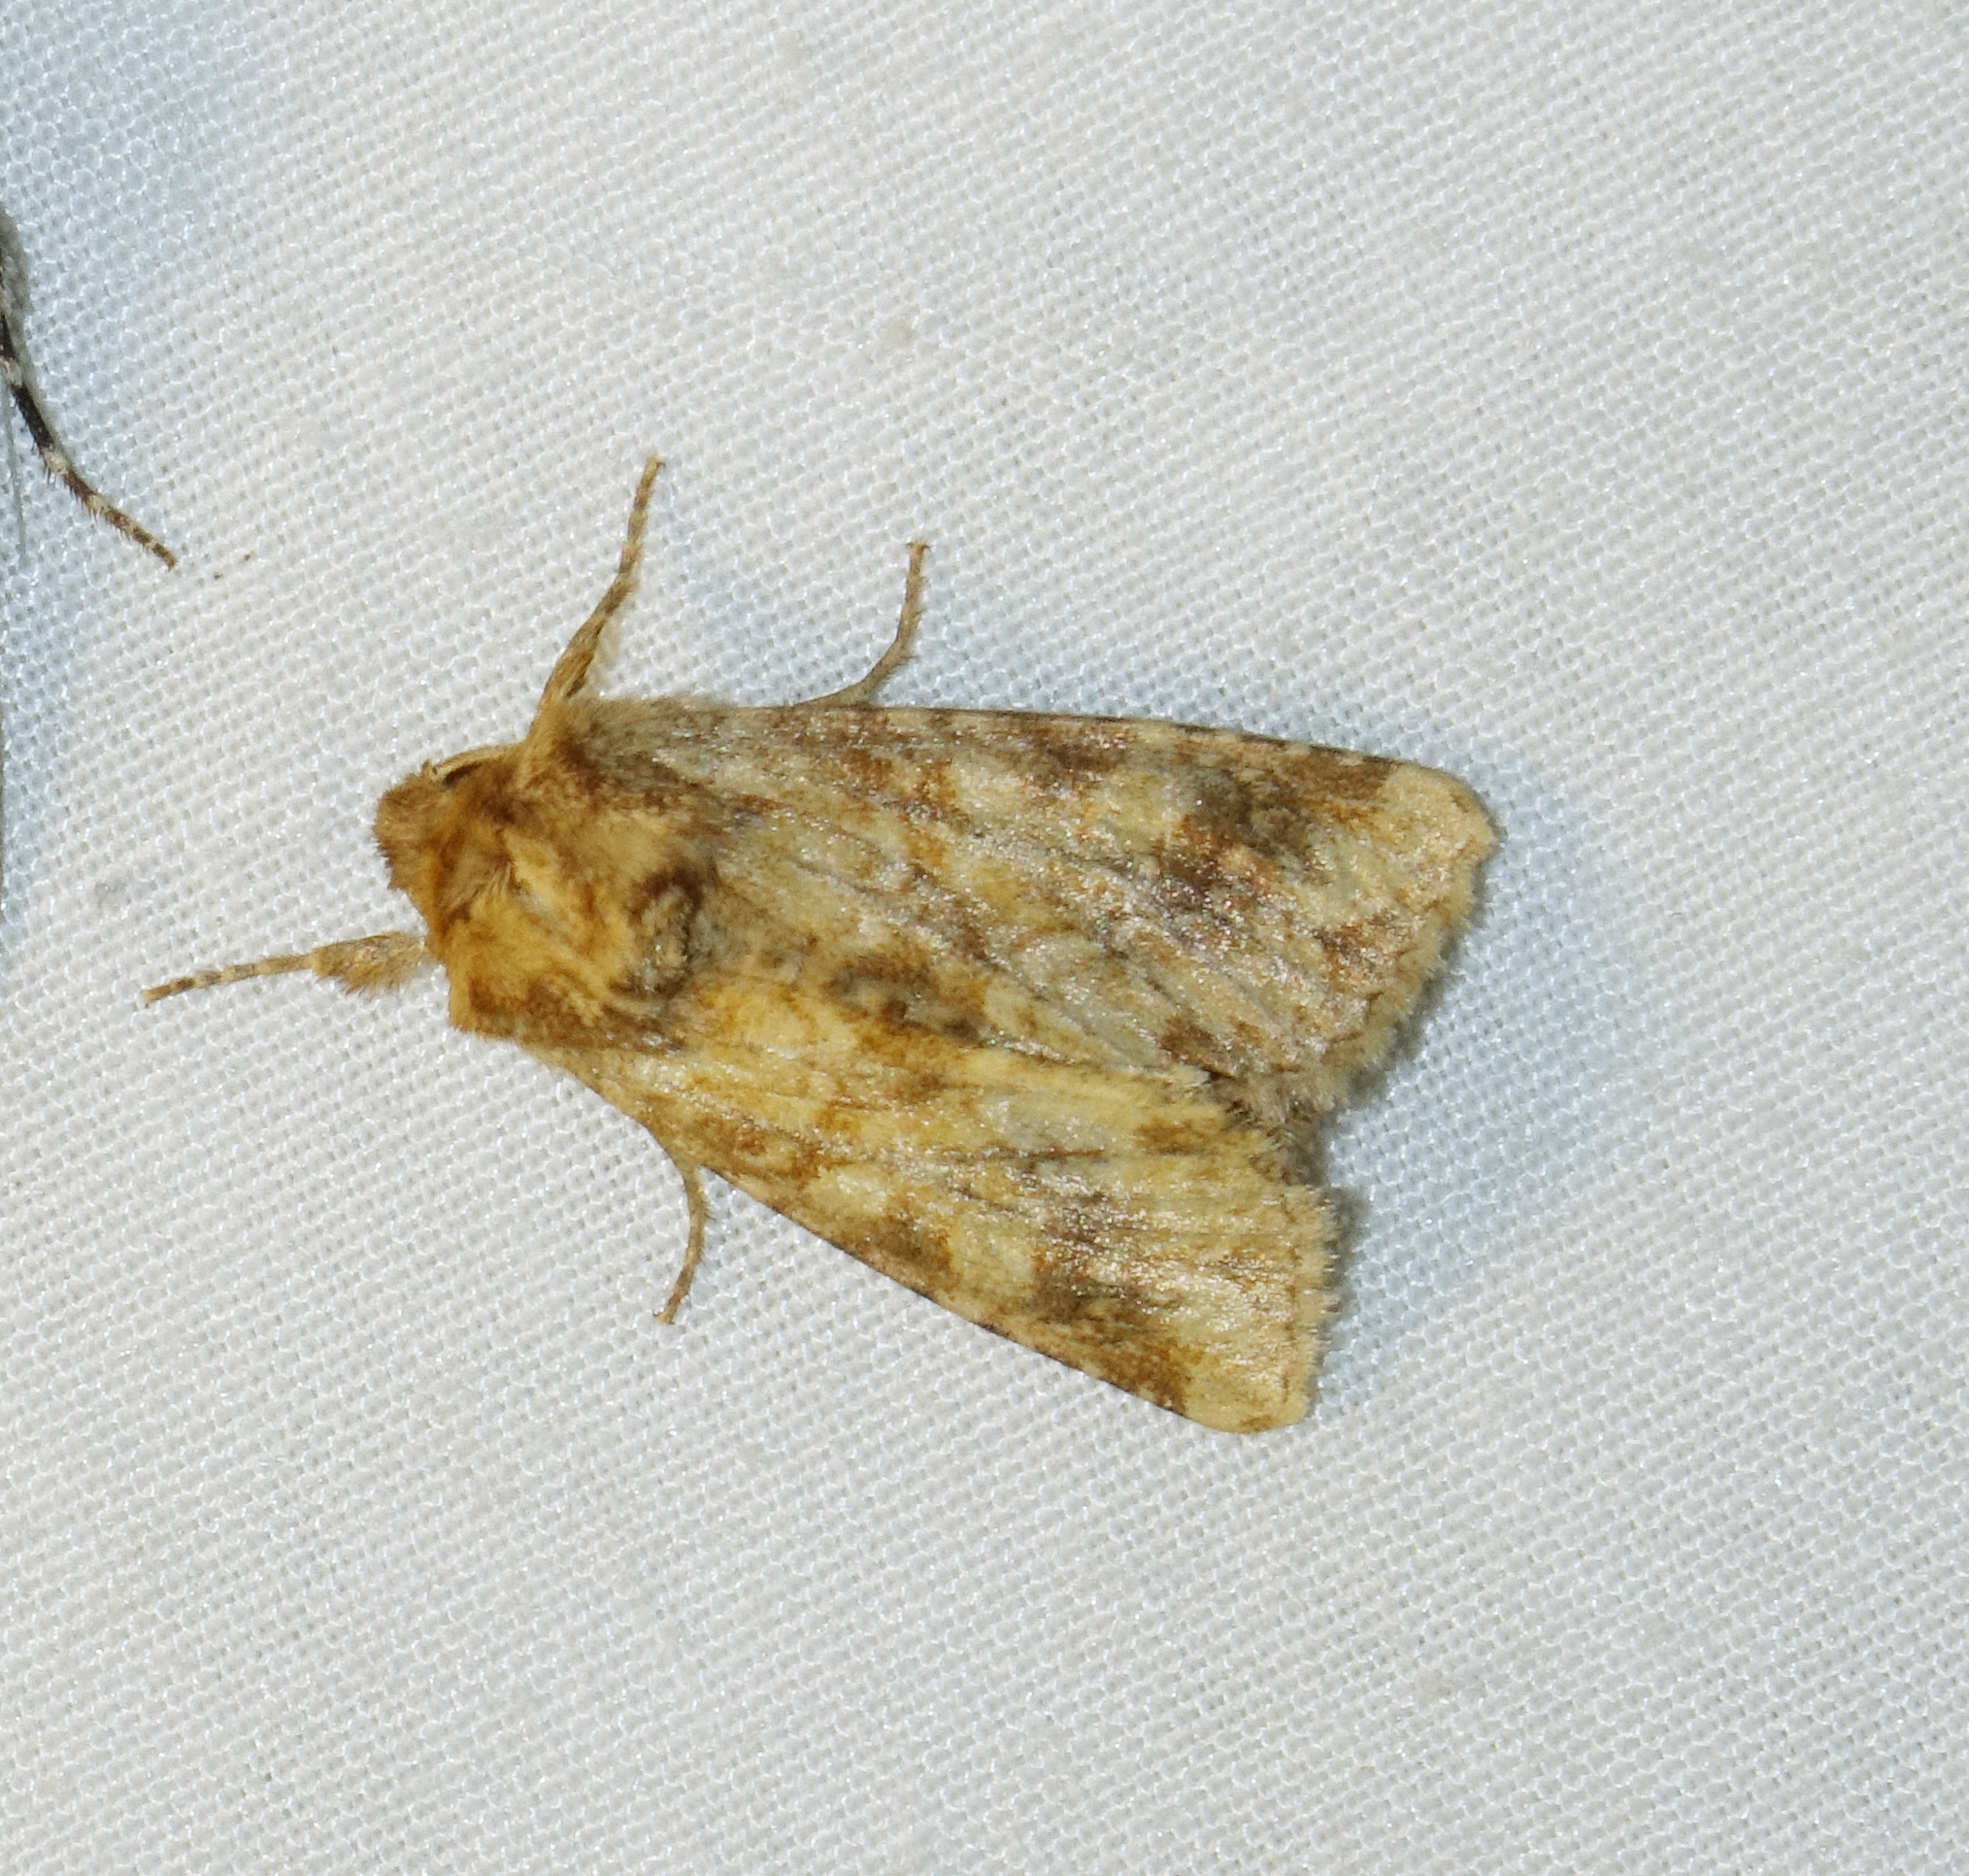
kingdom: Animalia
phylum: Arthropoda
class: Insecta
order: Lepidoptera
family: Noctuidae
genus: Conisania
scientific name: Conisania luteago
